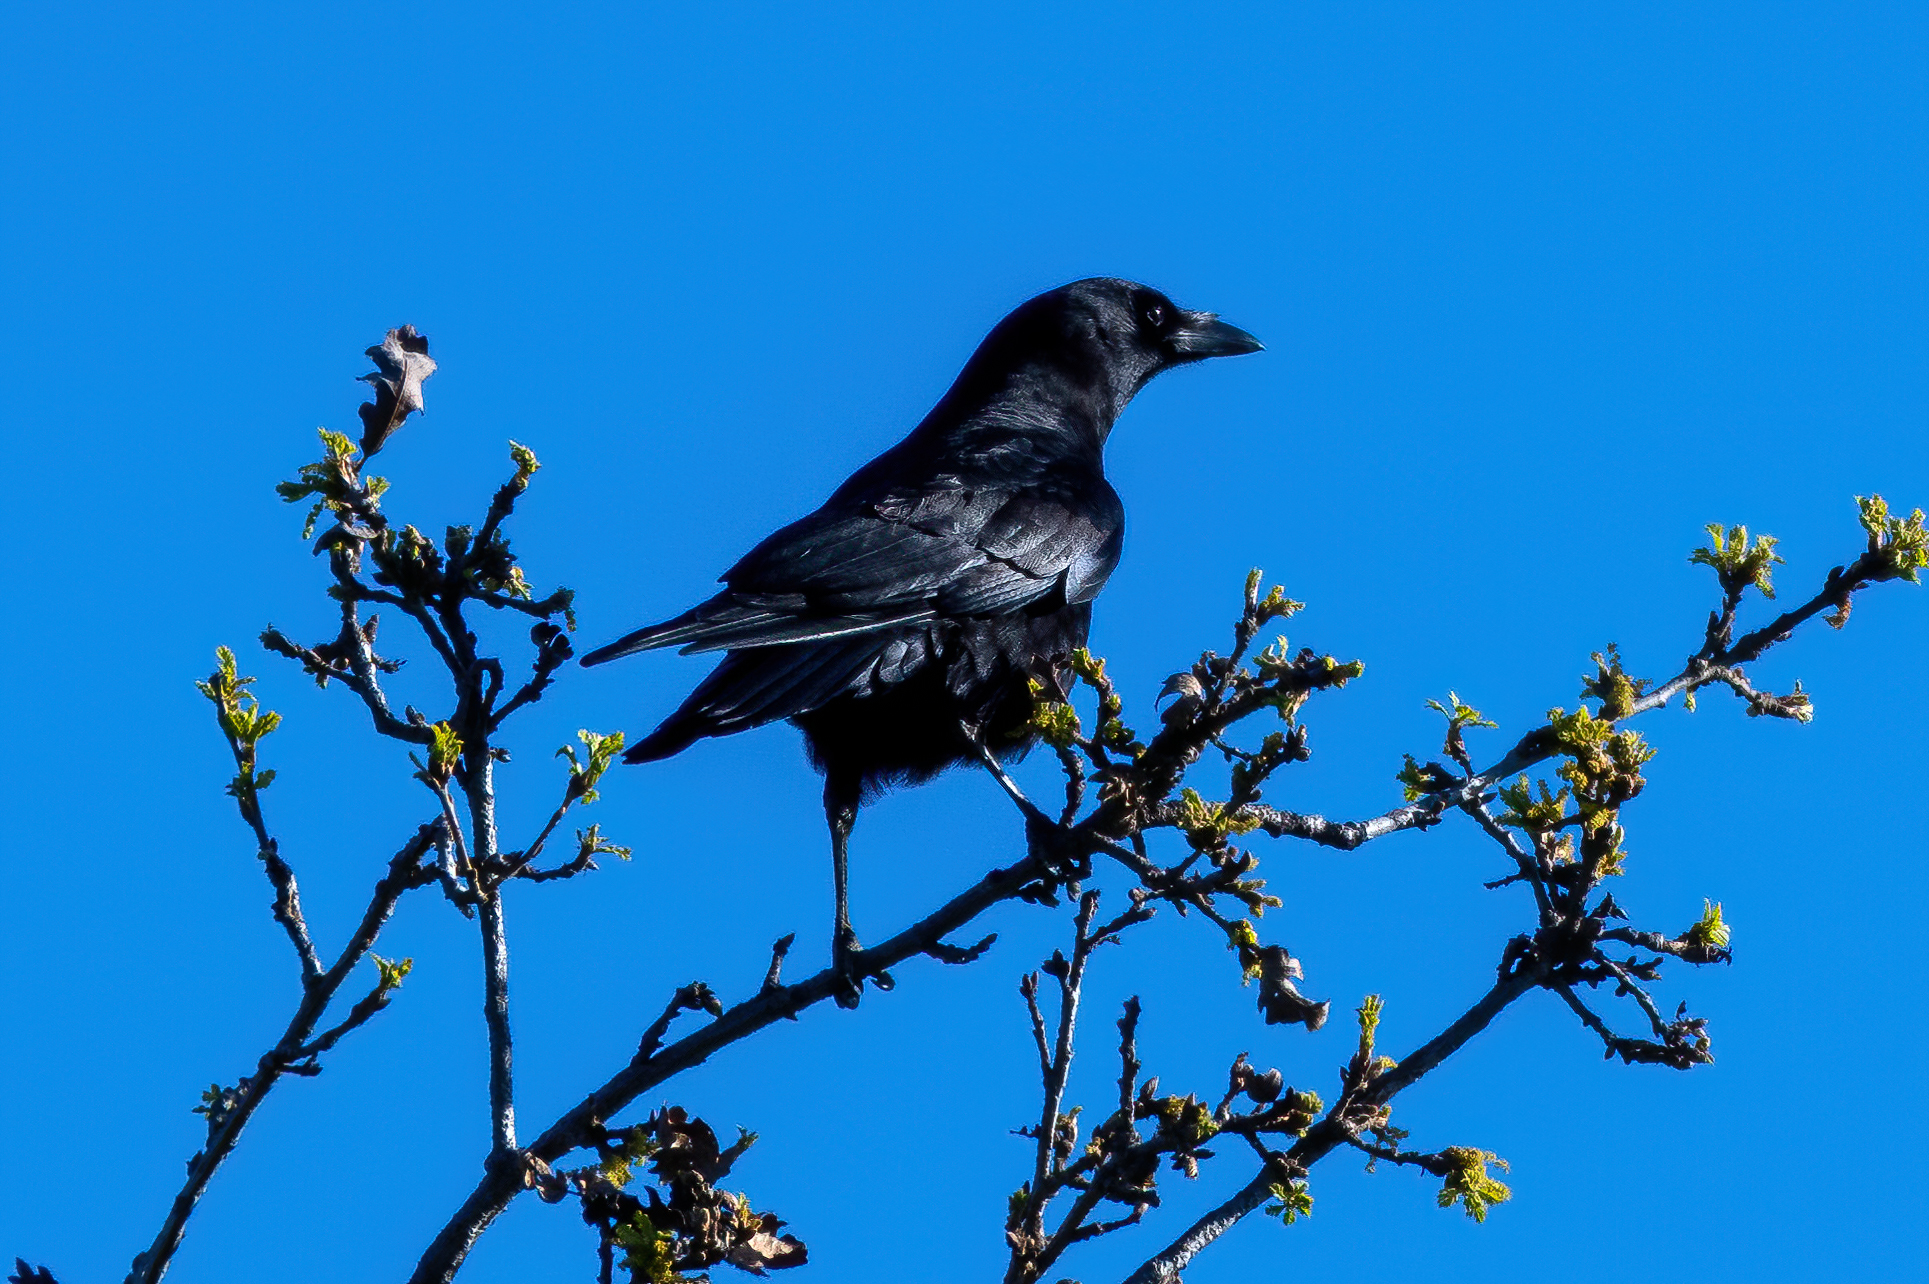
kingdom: Animalia
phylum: Chordata
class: Aves
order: Passeriformes
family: Corvidae
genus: Corvus
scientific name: Corvus brachyrhynchos
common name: American crow
